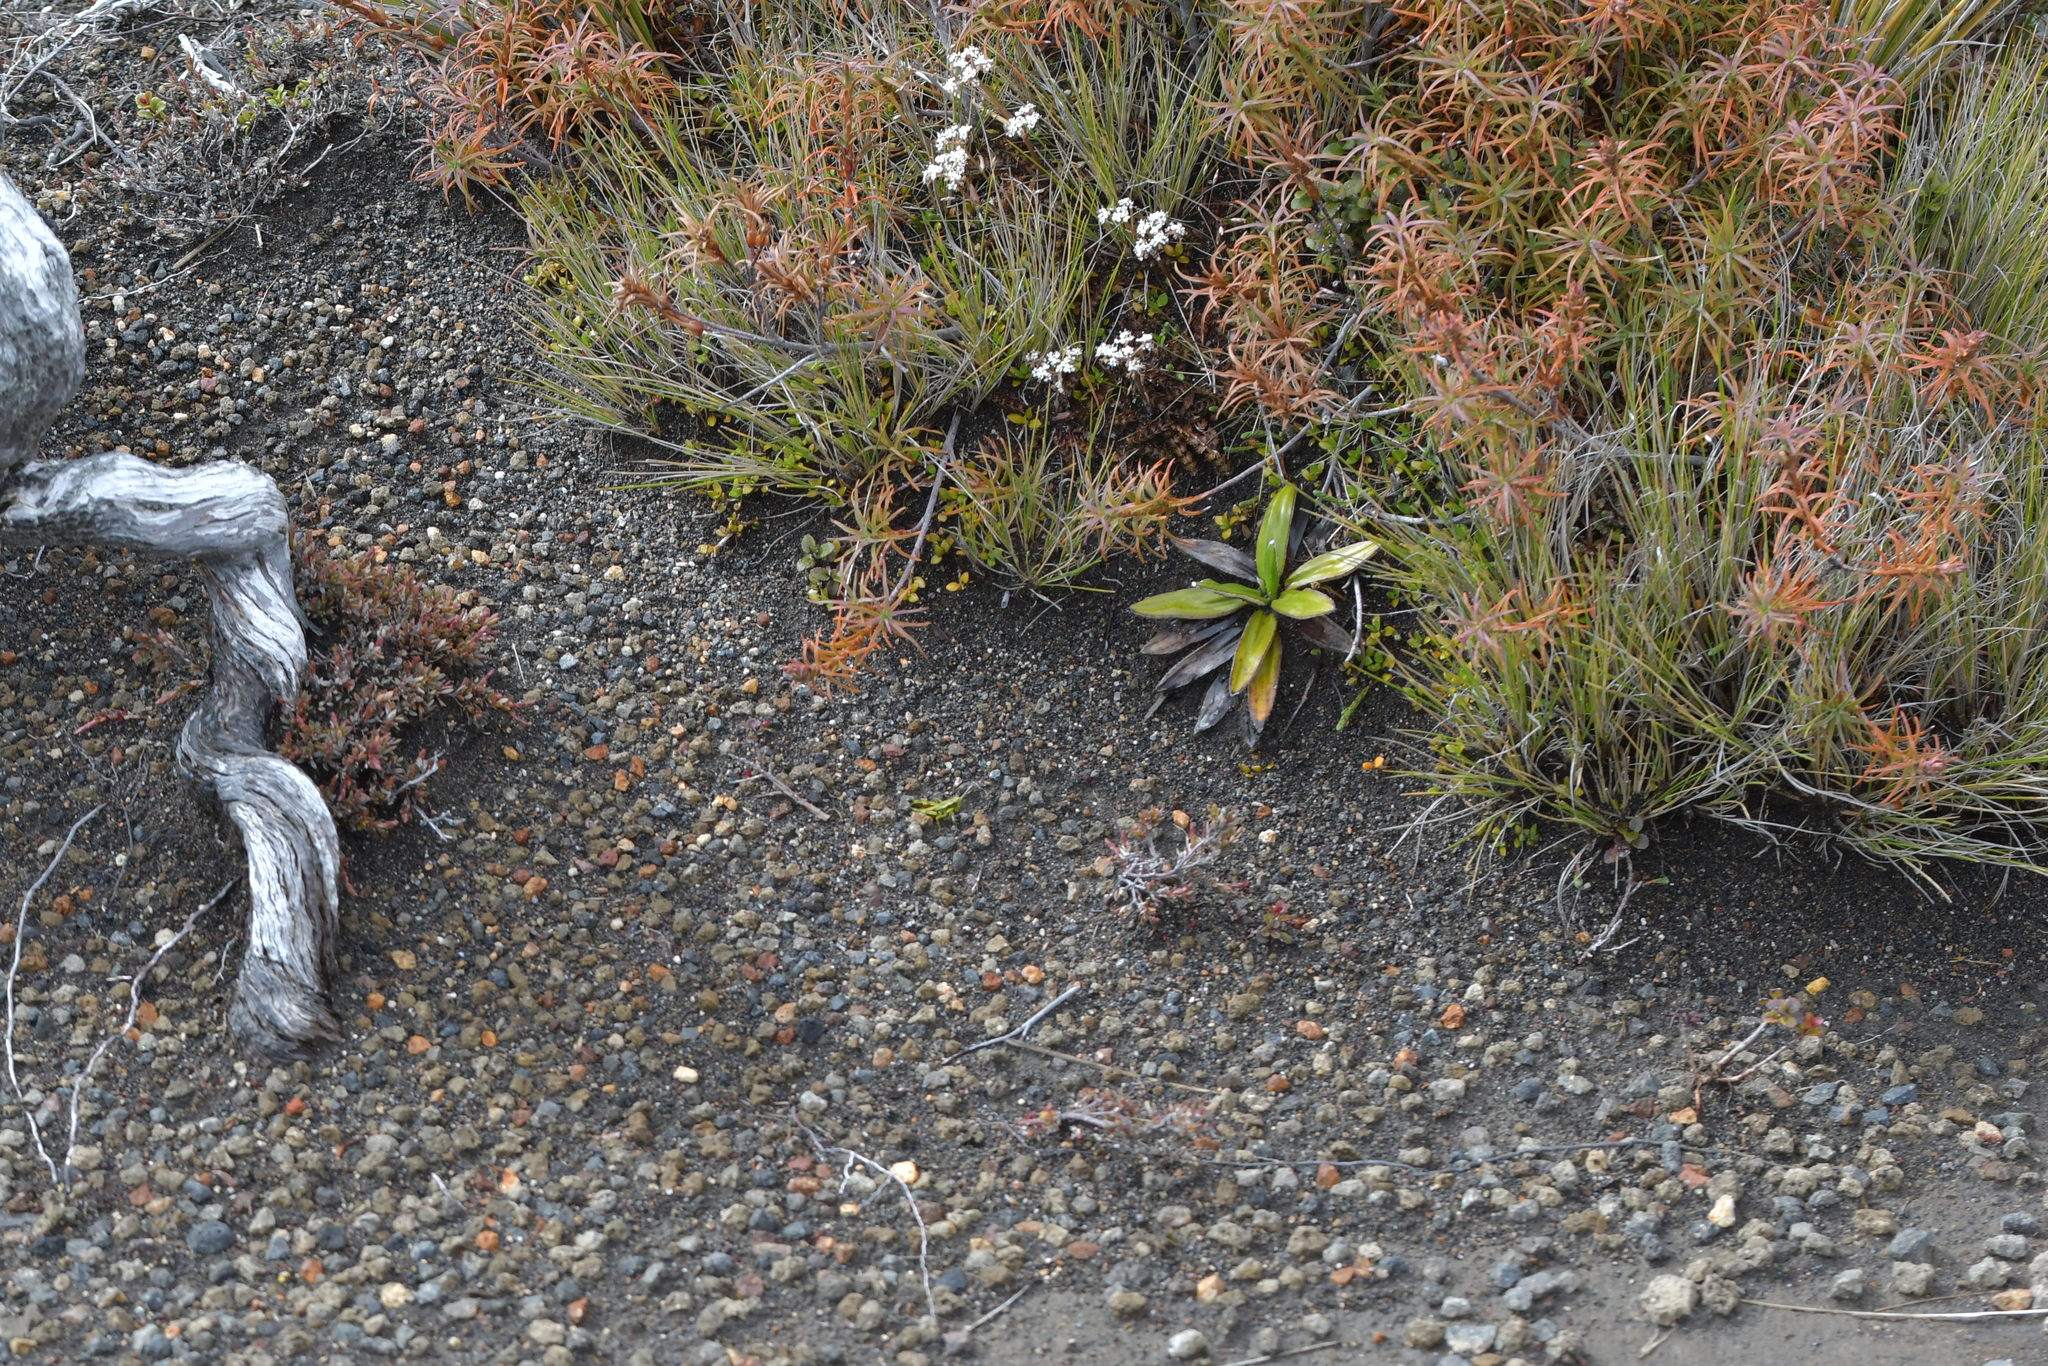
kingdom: Animalia
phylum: Arthropoda
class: Insecta
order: Orthoptera
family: Acrididae
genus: Sigaus
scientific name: Sigaus piliferus
